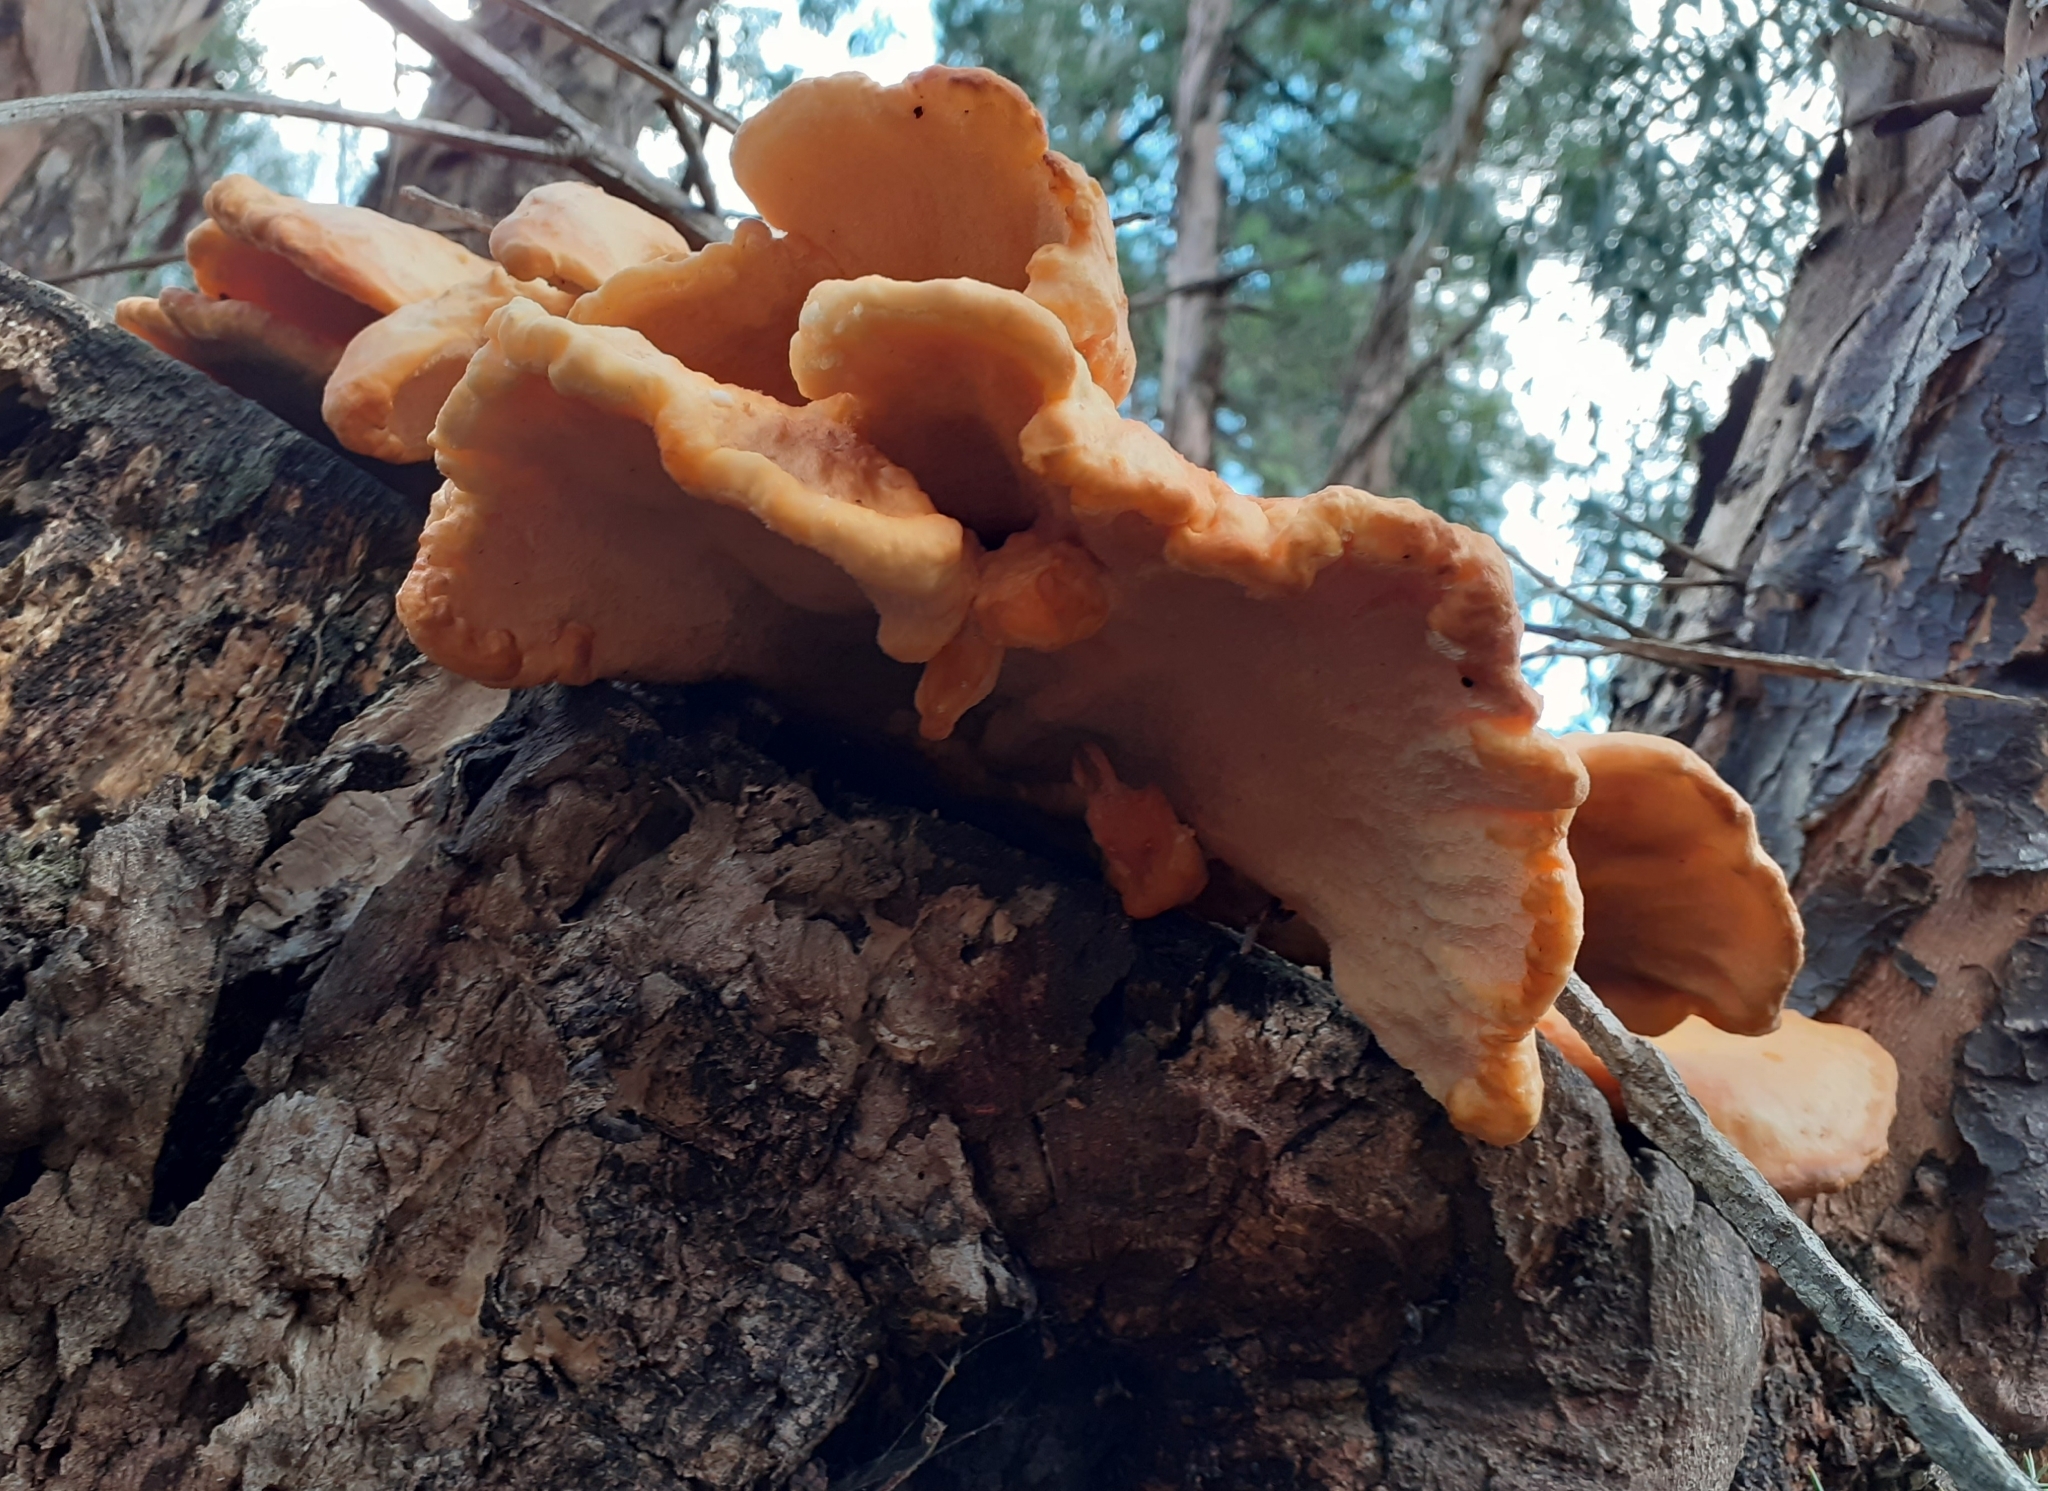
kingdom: Fungi
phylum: Basidiomycota
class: Agaricomycetes
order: Polyporales
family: Laetiporaceae
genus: Laetiporus
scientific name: Laetiporus sulphureus
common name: Chicken of the woods
